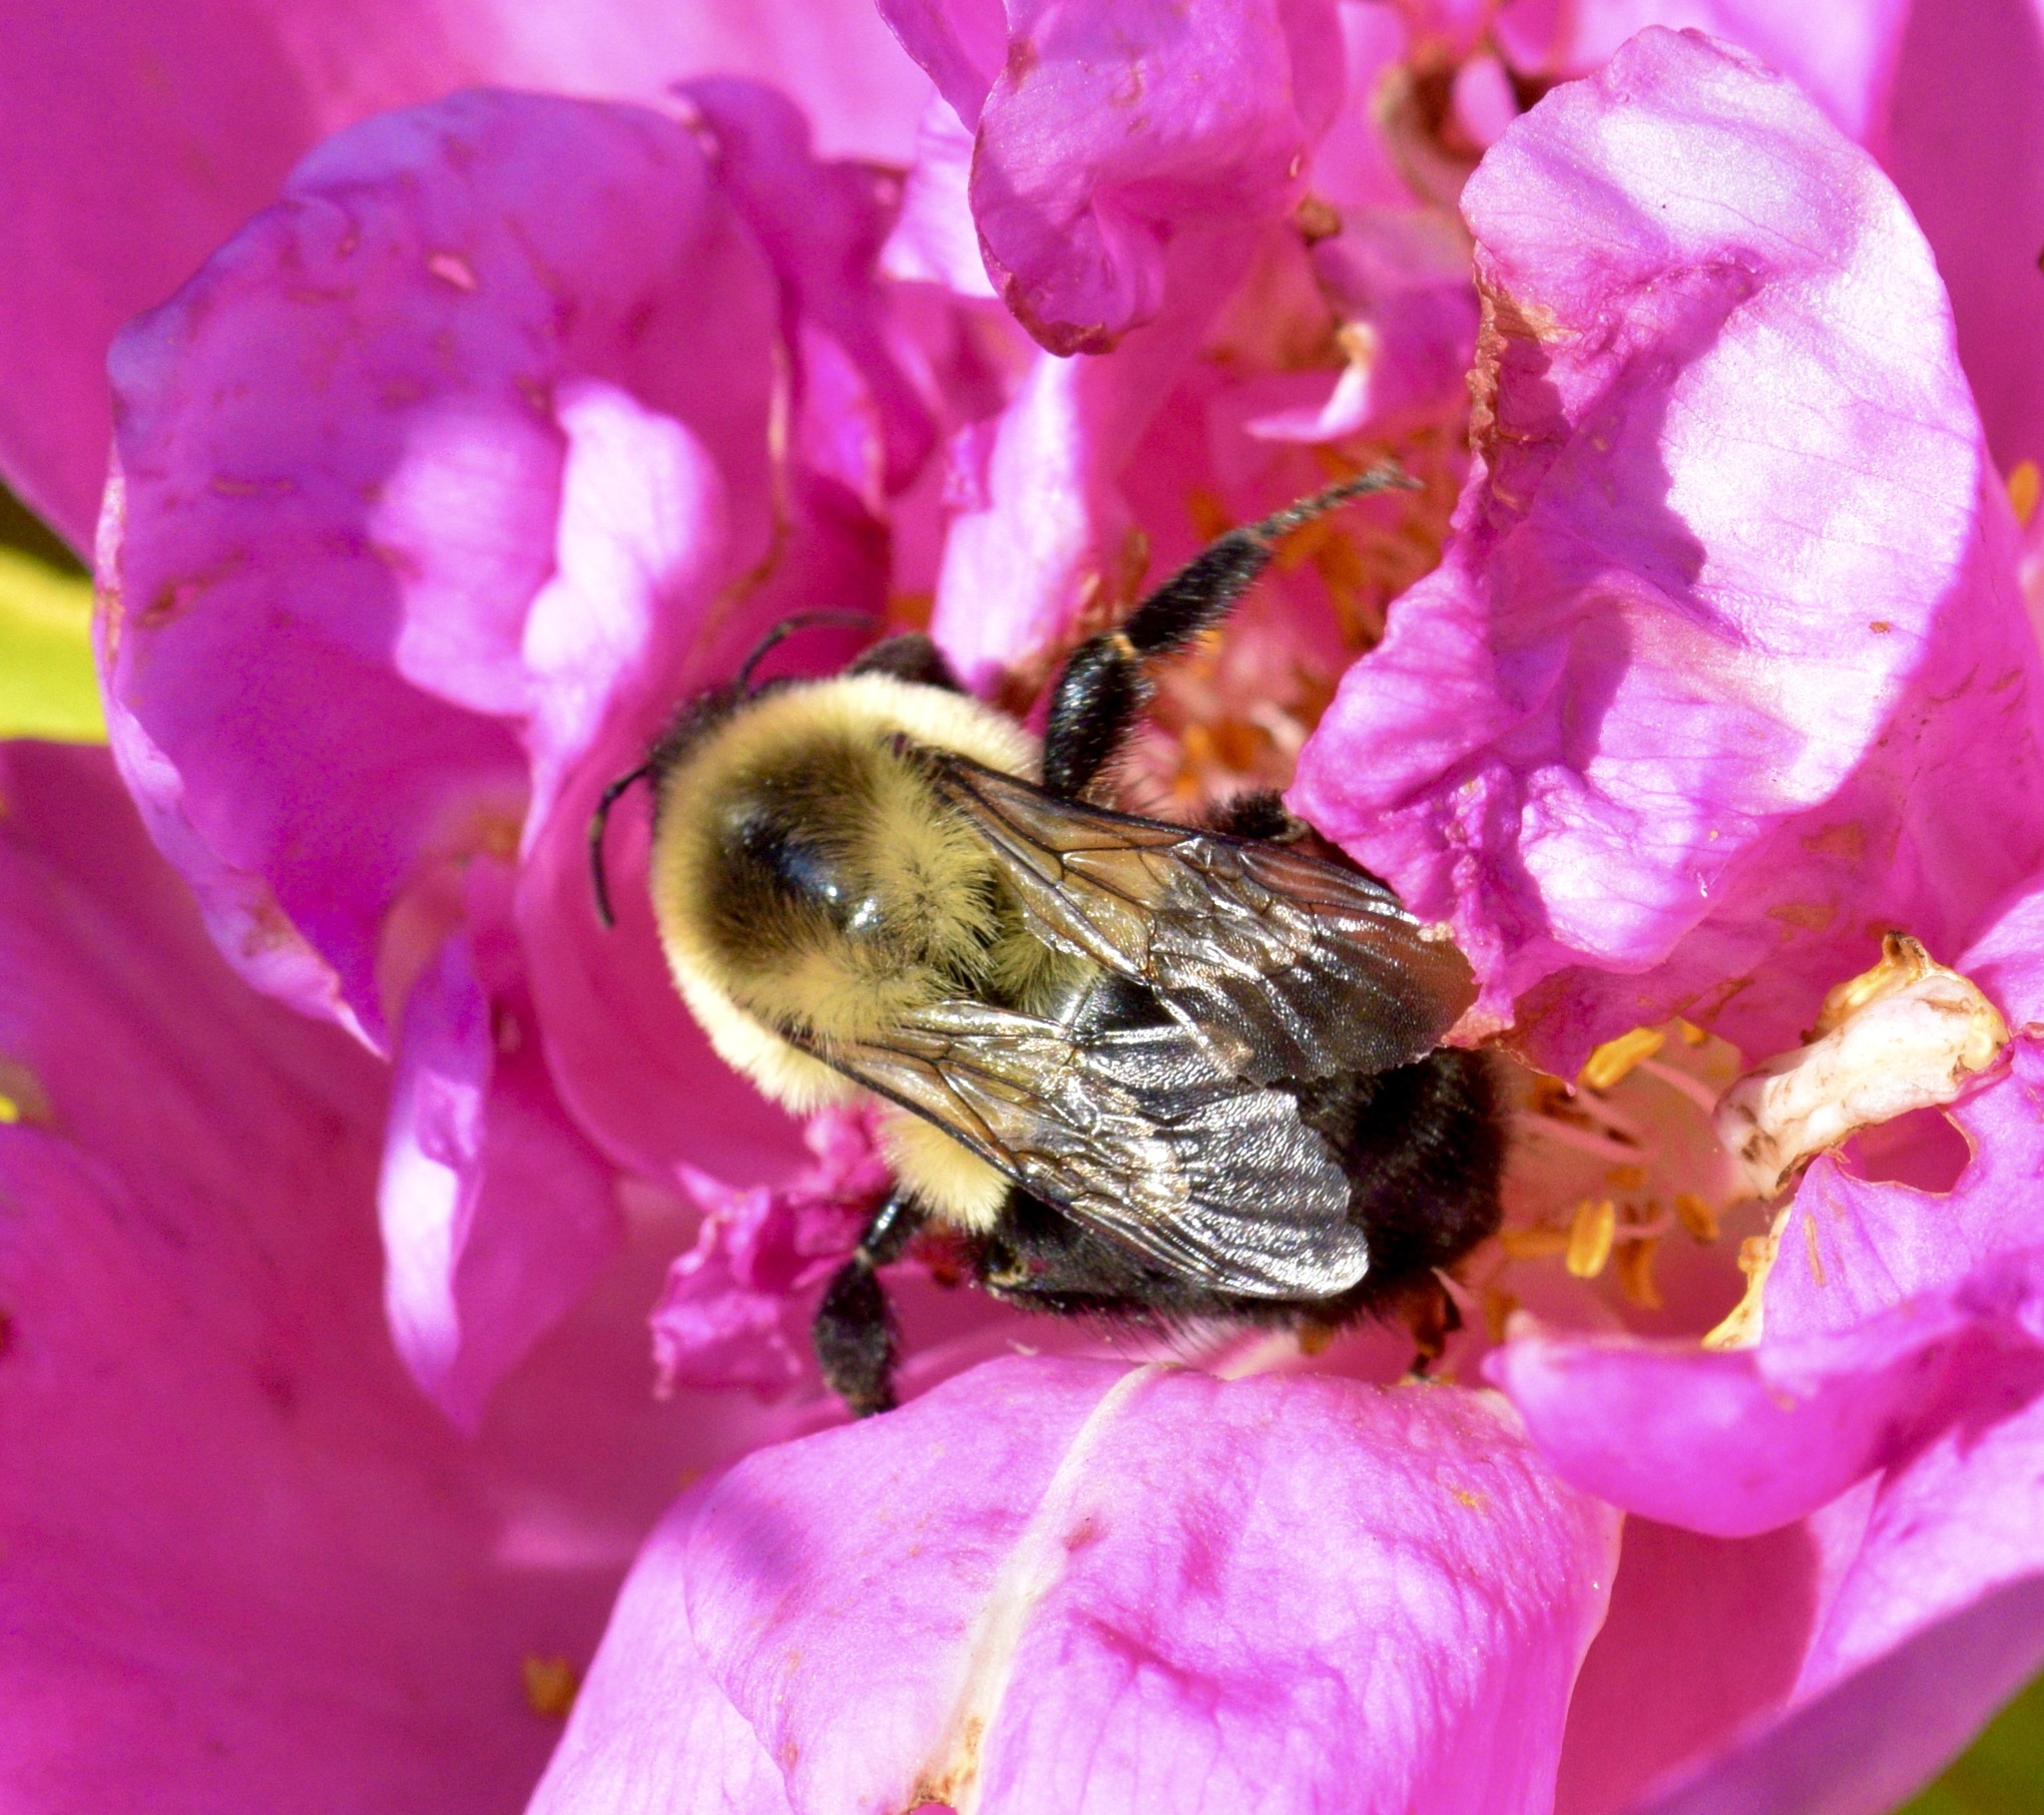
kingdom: Animalia
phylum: Arthropoda
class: Insecta
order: Hymenoptera
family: Apidae
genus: Bombus
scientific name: Bombus impatiens
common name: Common eastern bumble bee
